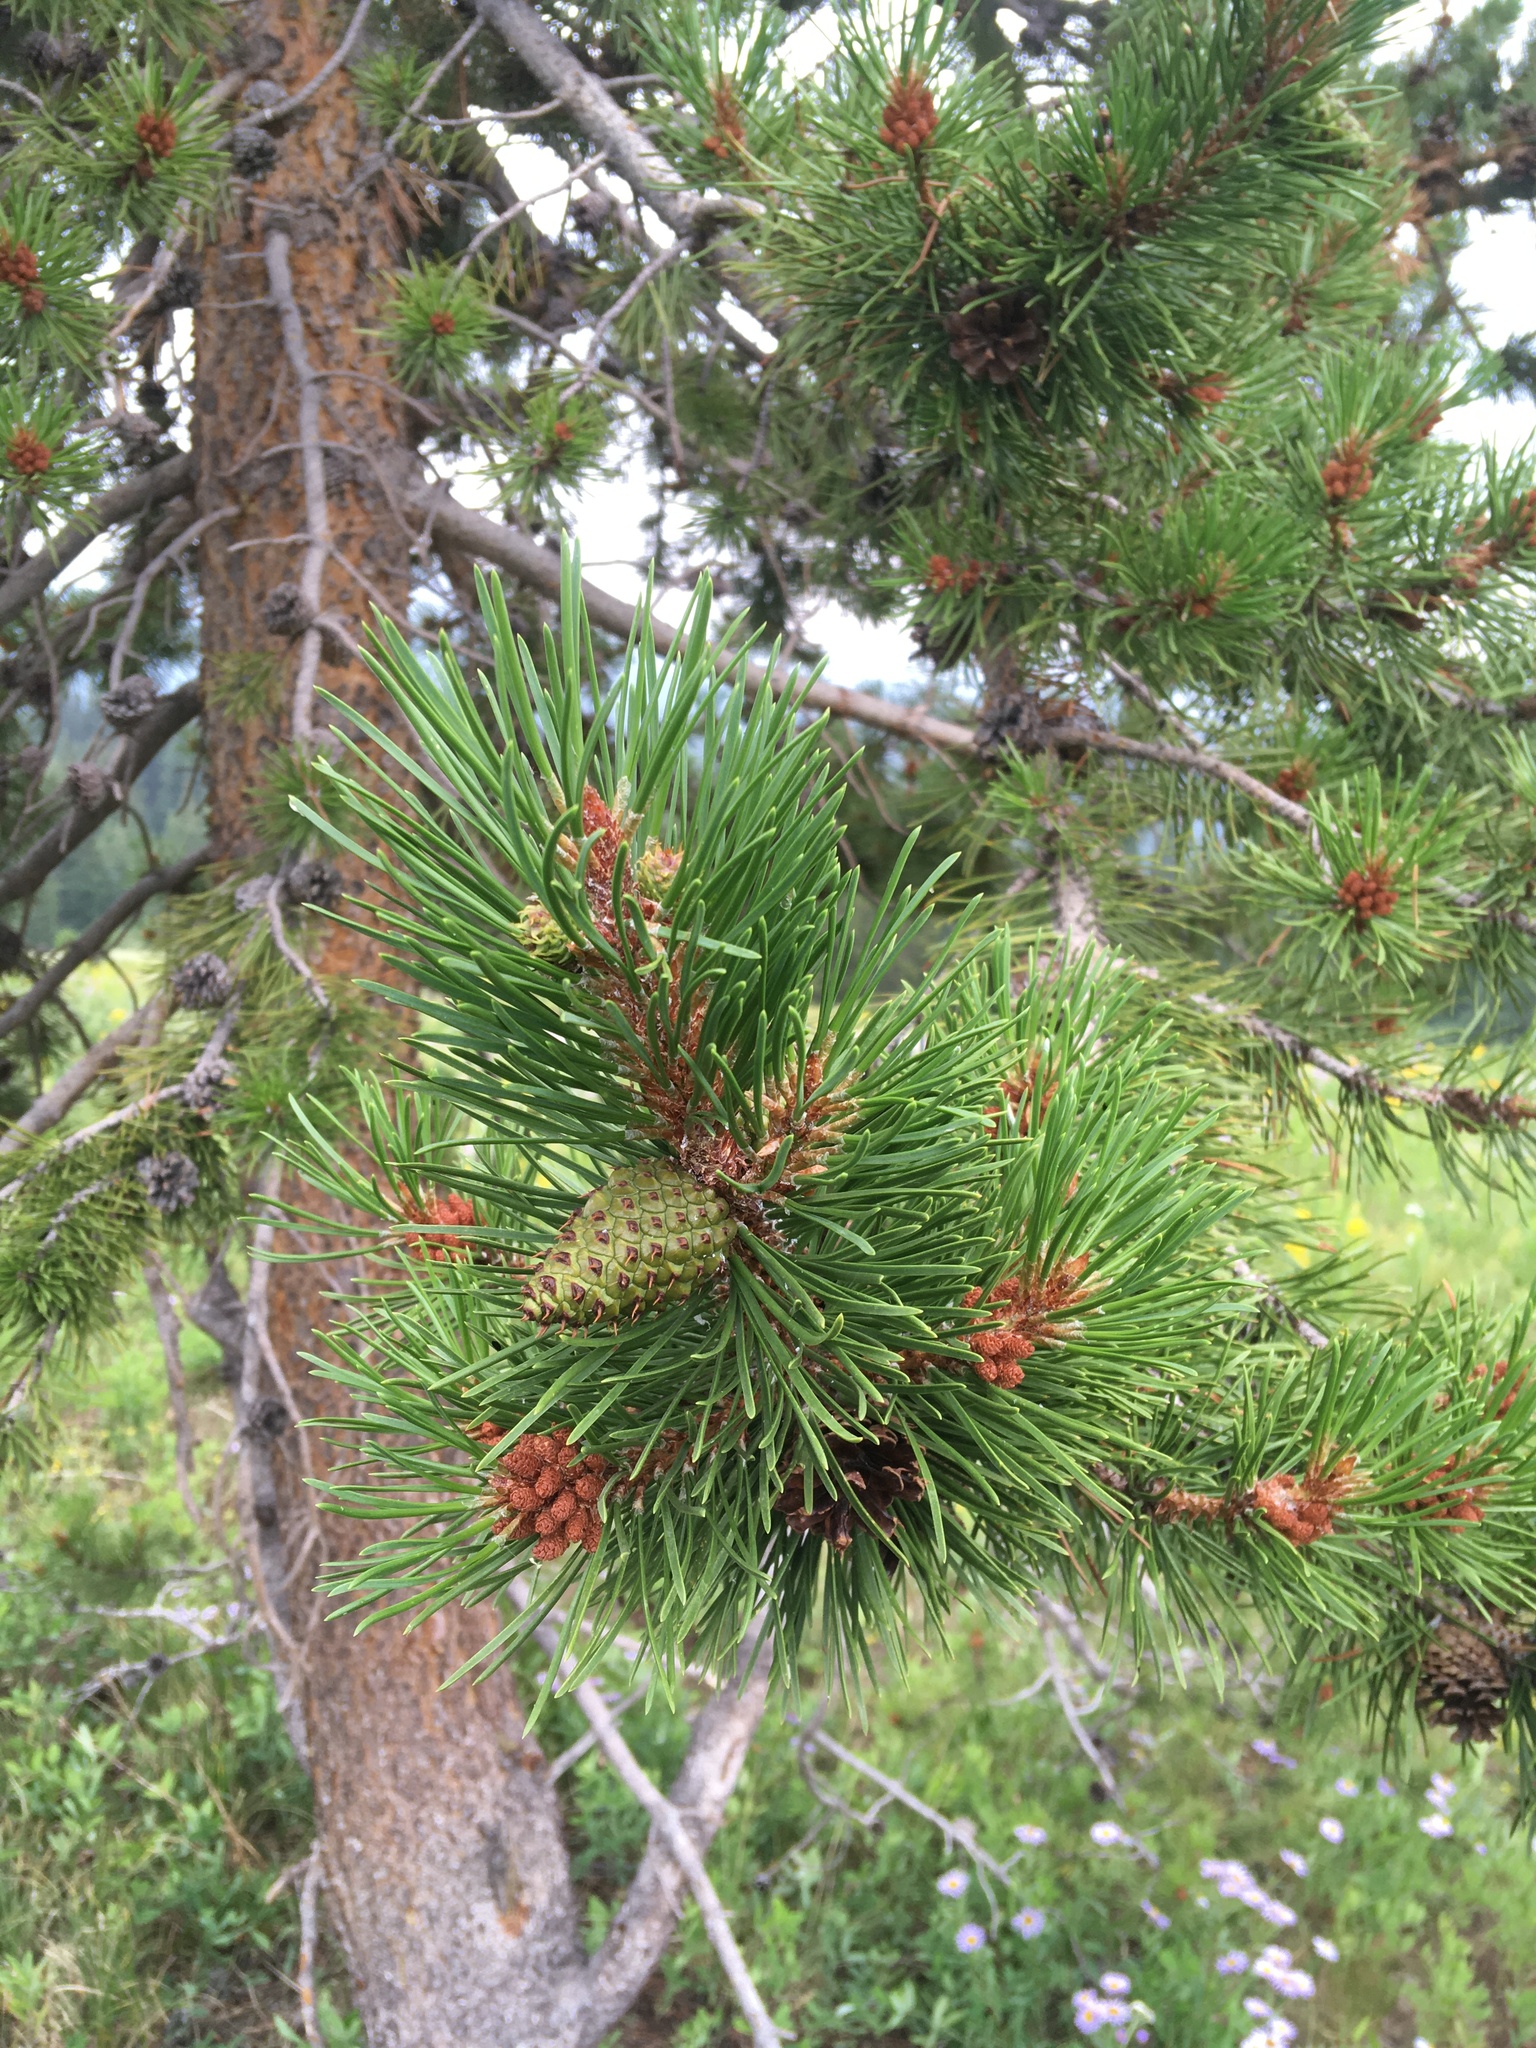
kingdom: Plantae
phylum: Tracheophyta
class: Pinopsida
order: Pinales
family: Pinaceae
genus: Pinus
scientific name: Pinus contorta
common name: Lodgepole pine
